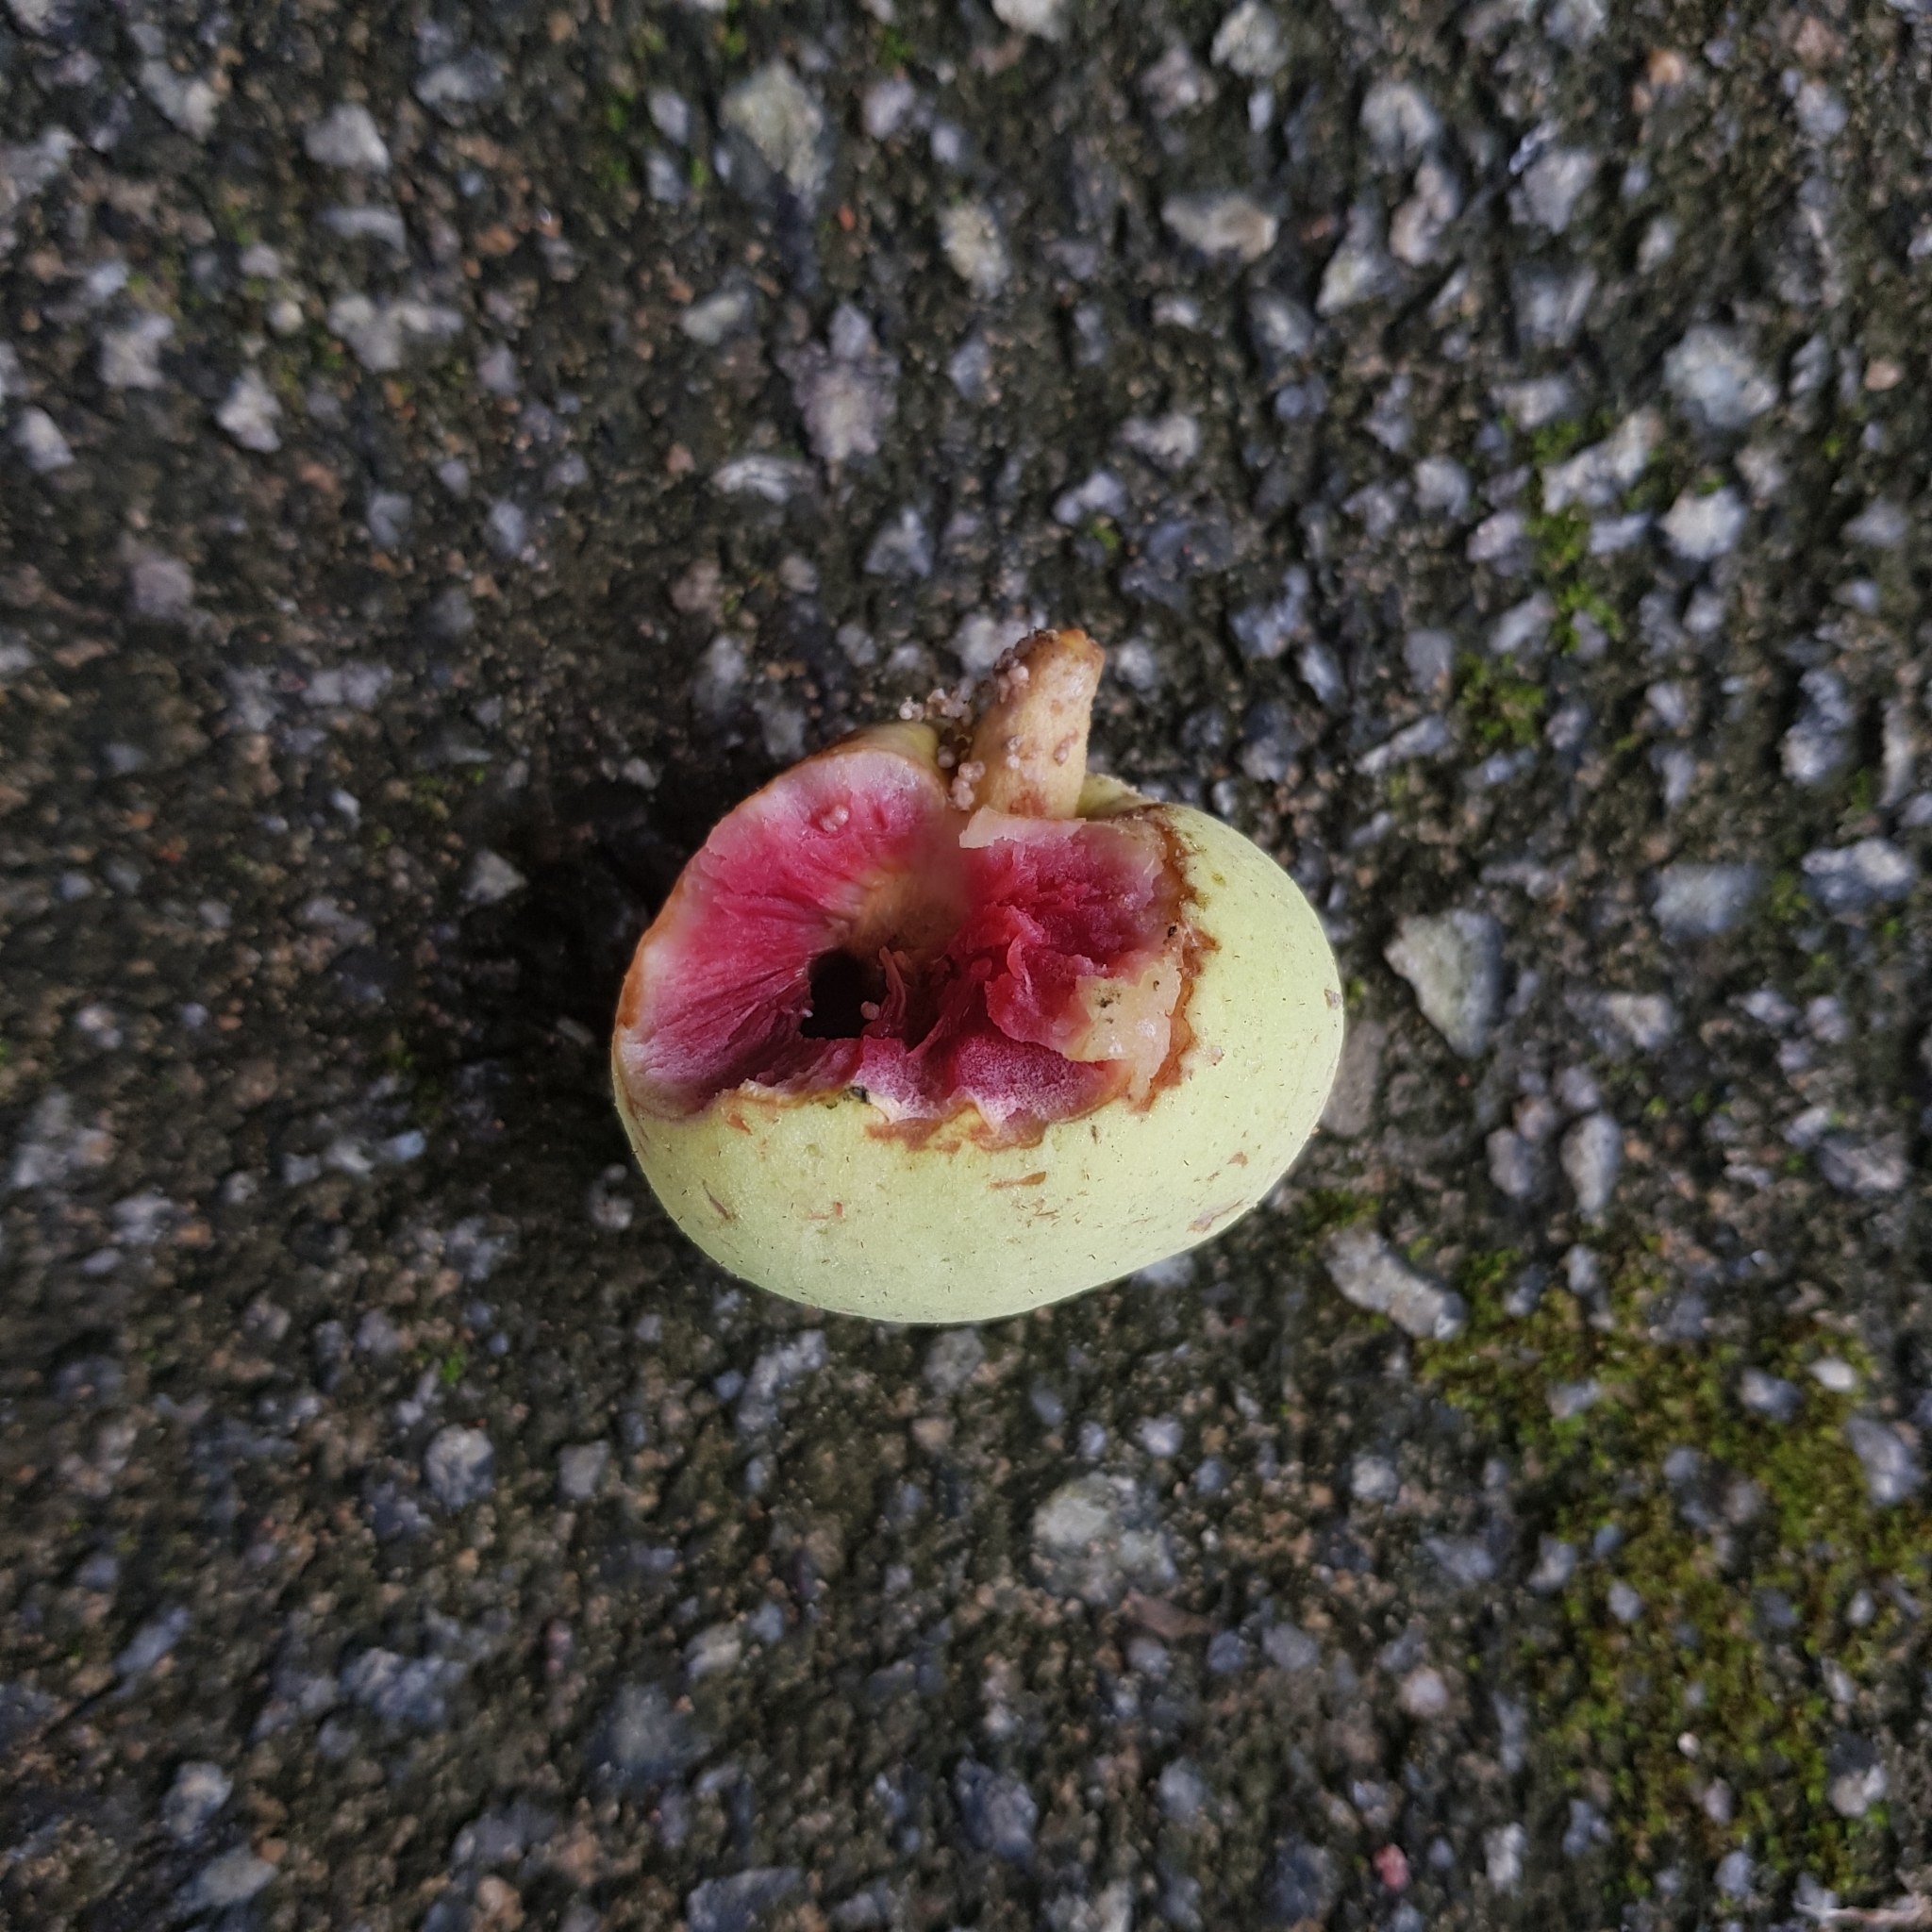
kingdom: Plantae
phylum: Tracheophyta
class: Magnoliopsida
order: Rosales
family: Moraceae
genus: Artocarpus
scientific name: Artocarpus lacucha
